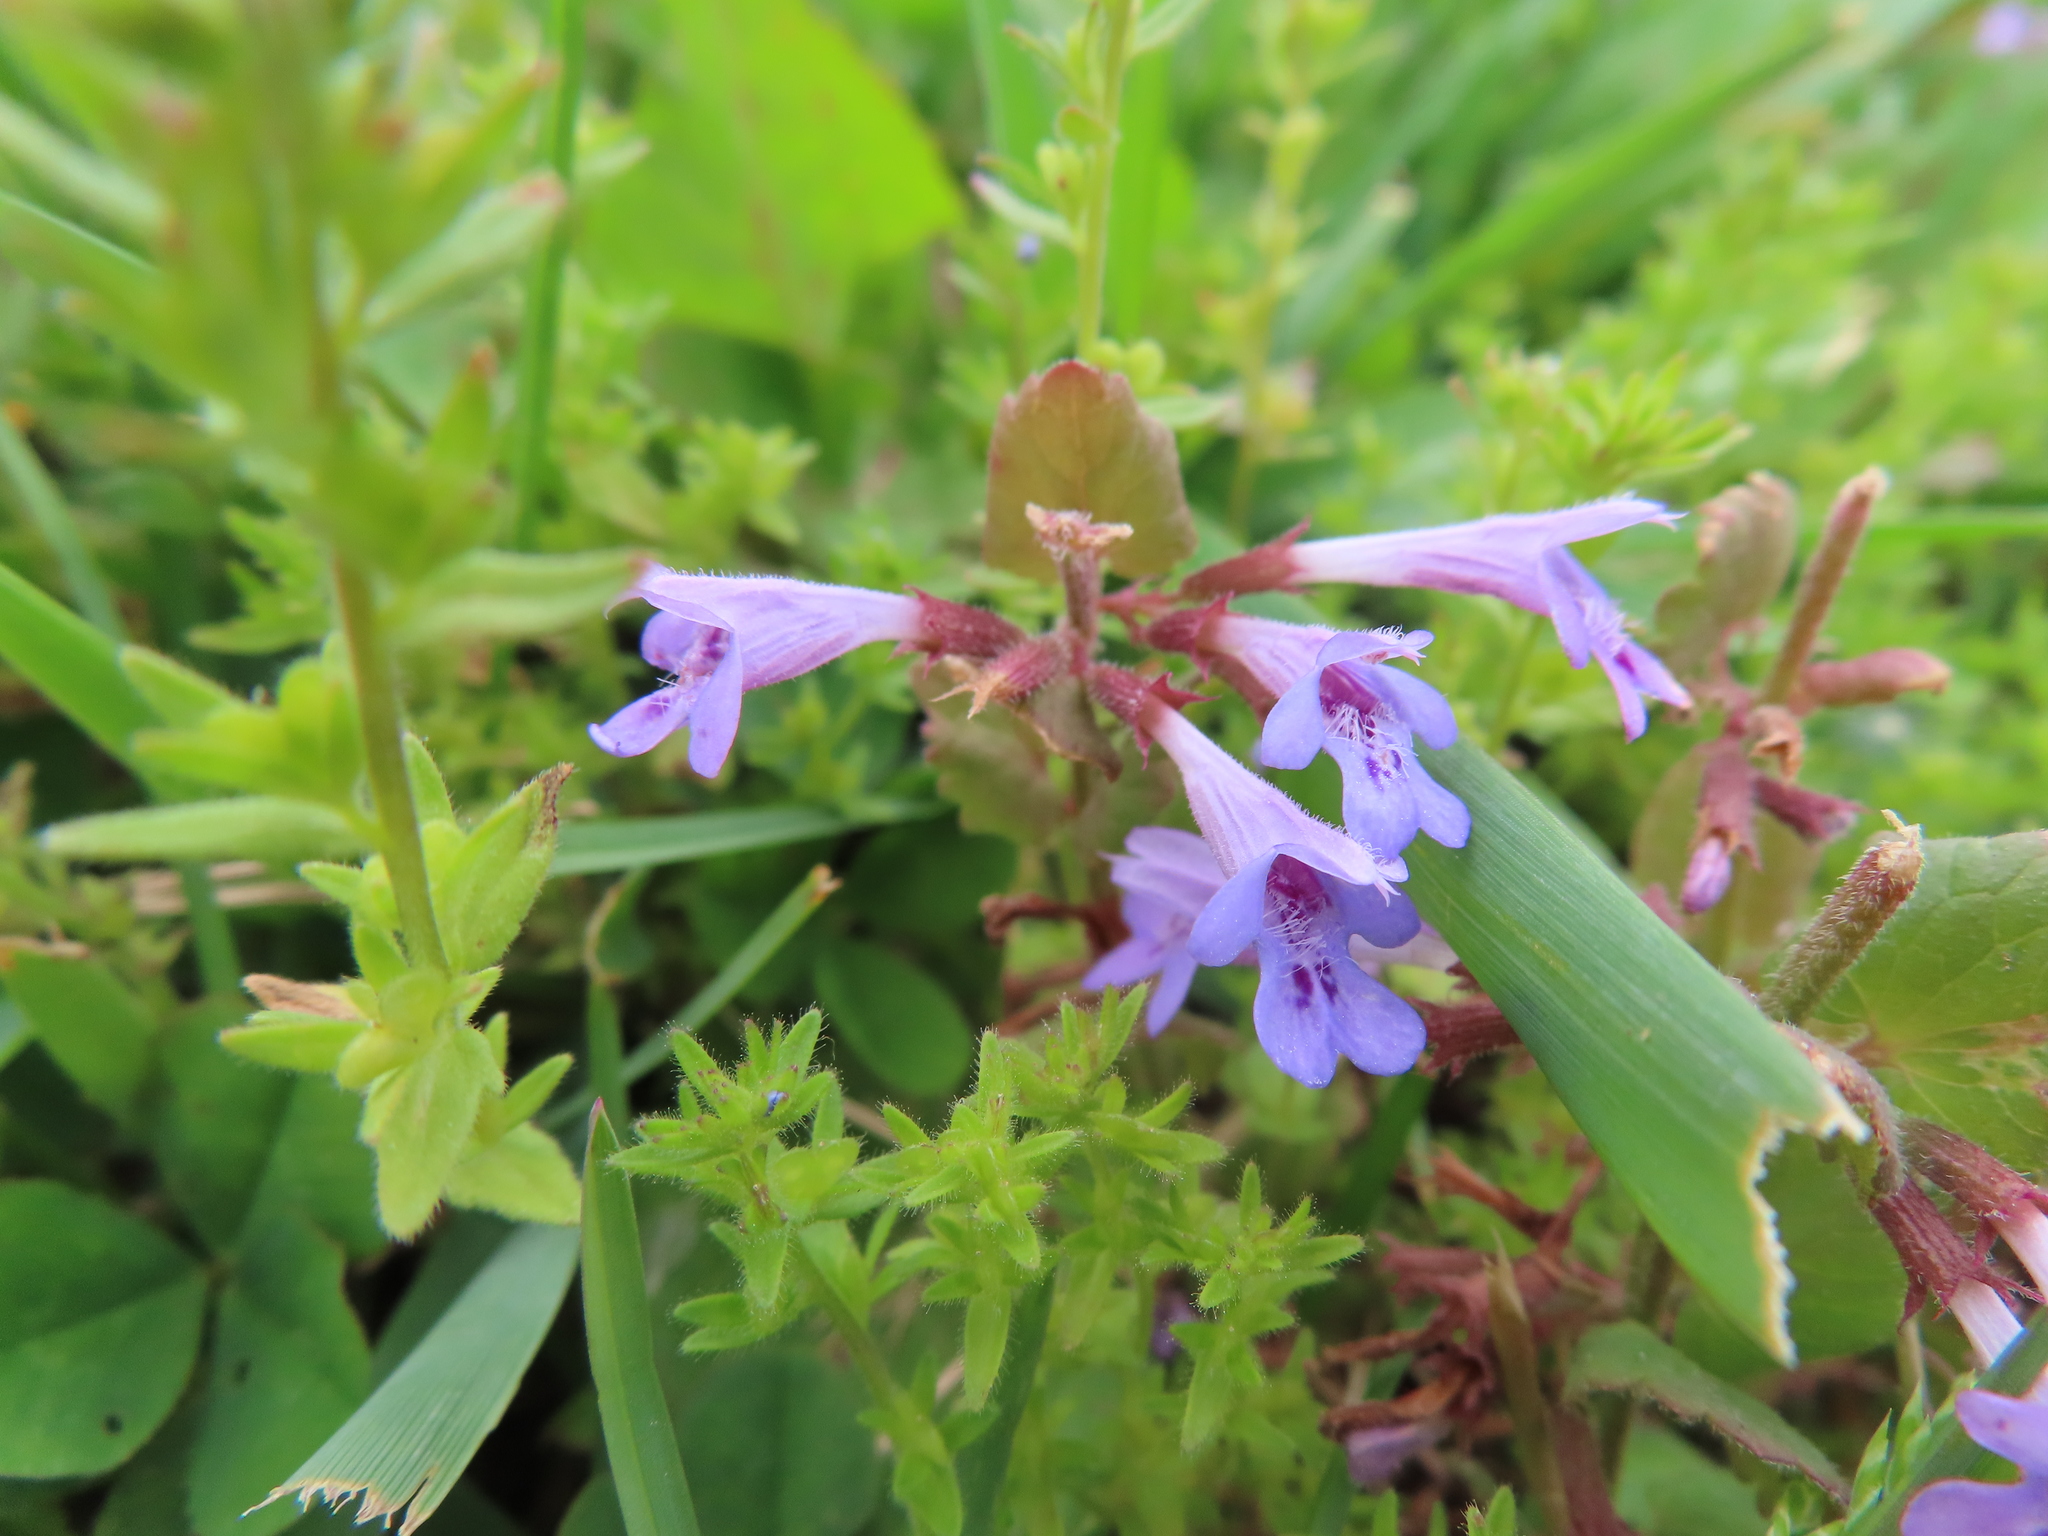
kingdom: Plantae
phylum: Tracheophyta
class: Magnoliopsida
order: Lamiales
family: Lamiaceae
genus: Glechoma
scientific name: Glechoma hederacea
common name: Ground ivy
